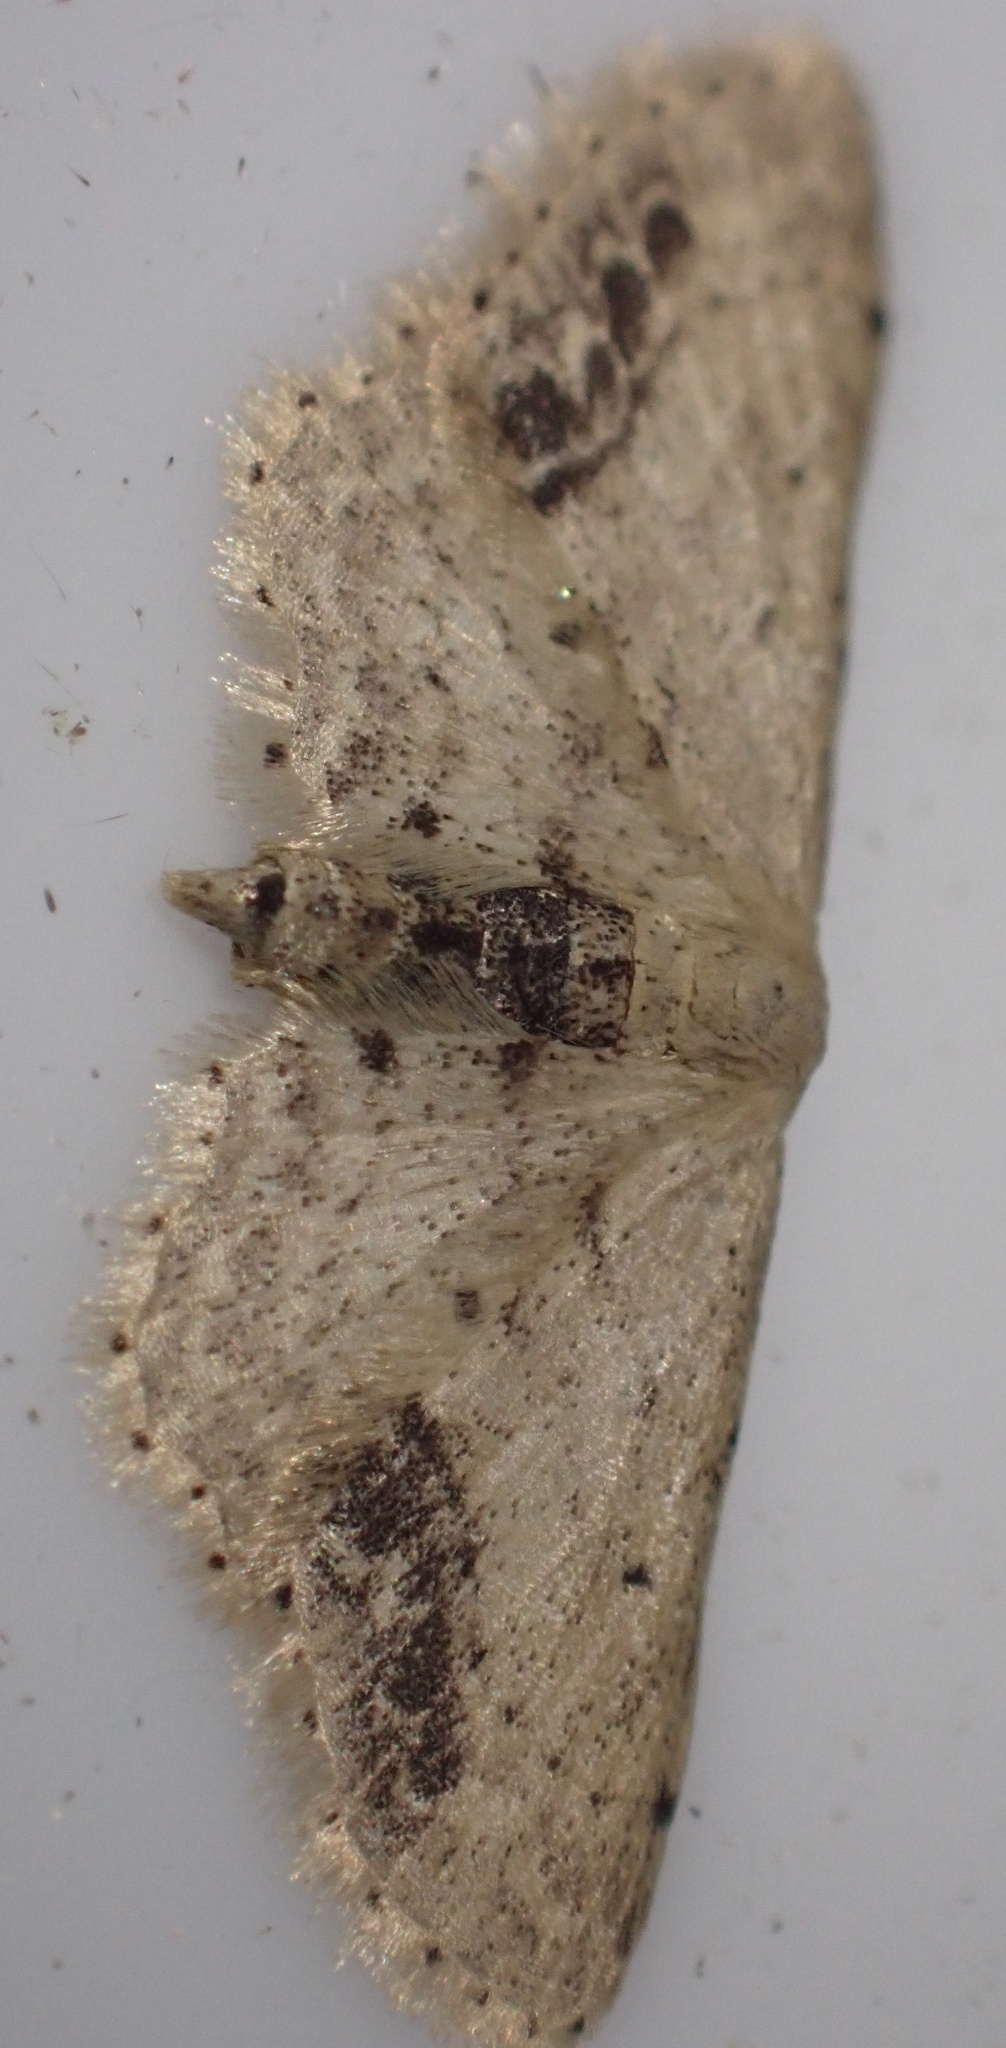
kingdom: Animalia
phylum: Arthropoda
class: Insecta
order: Lepidoptera
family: Geometridae
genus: Idaea
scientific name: Idaea dimidiata
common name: Single-dotted wave
